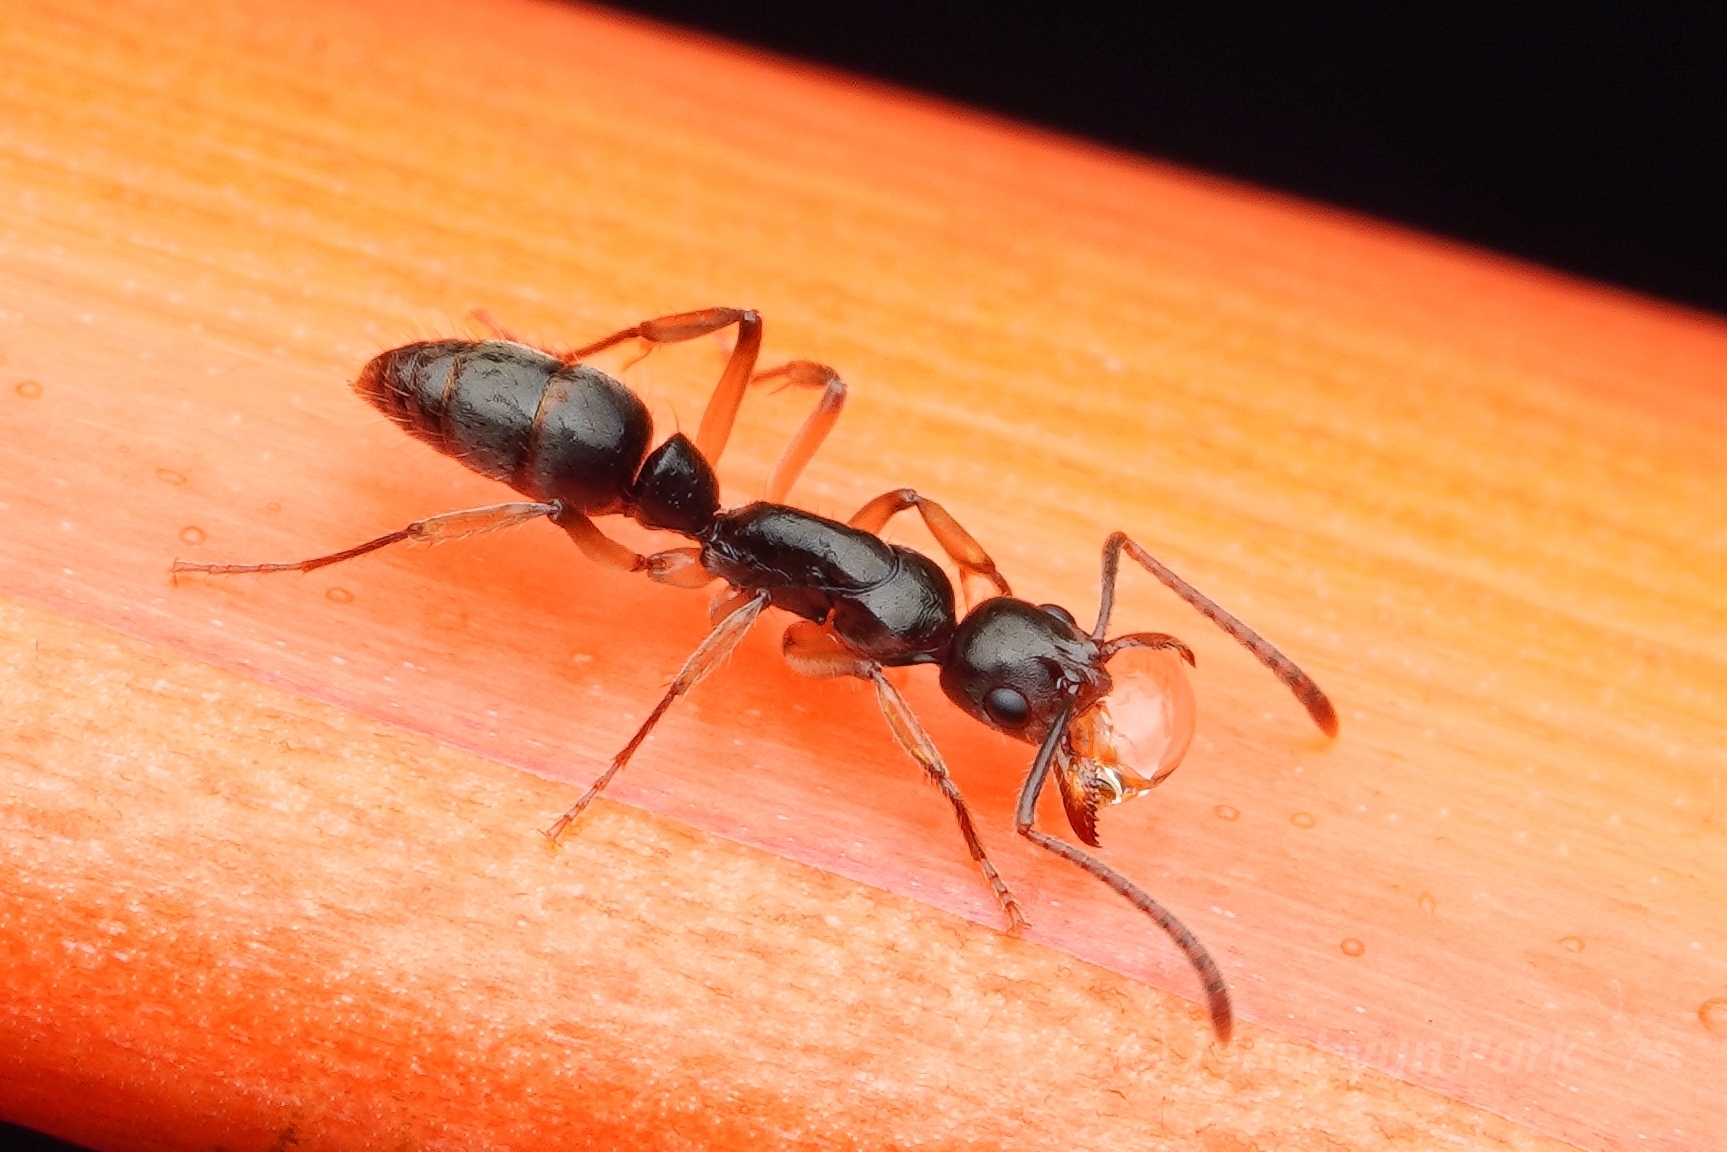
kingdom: Animalia
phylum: Arthropoda
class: Insecta
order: Hymenoptera
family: Formicidae
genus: Neoponera
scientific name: Neoponera oberthueri
